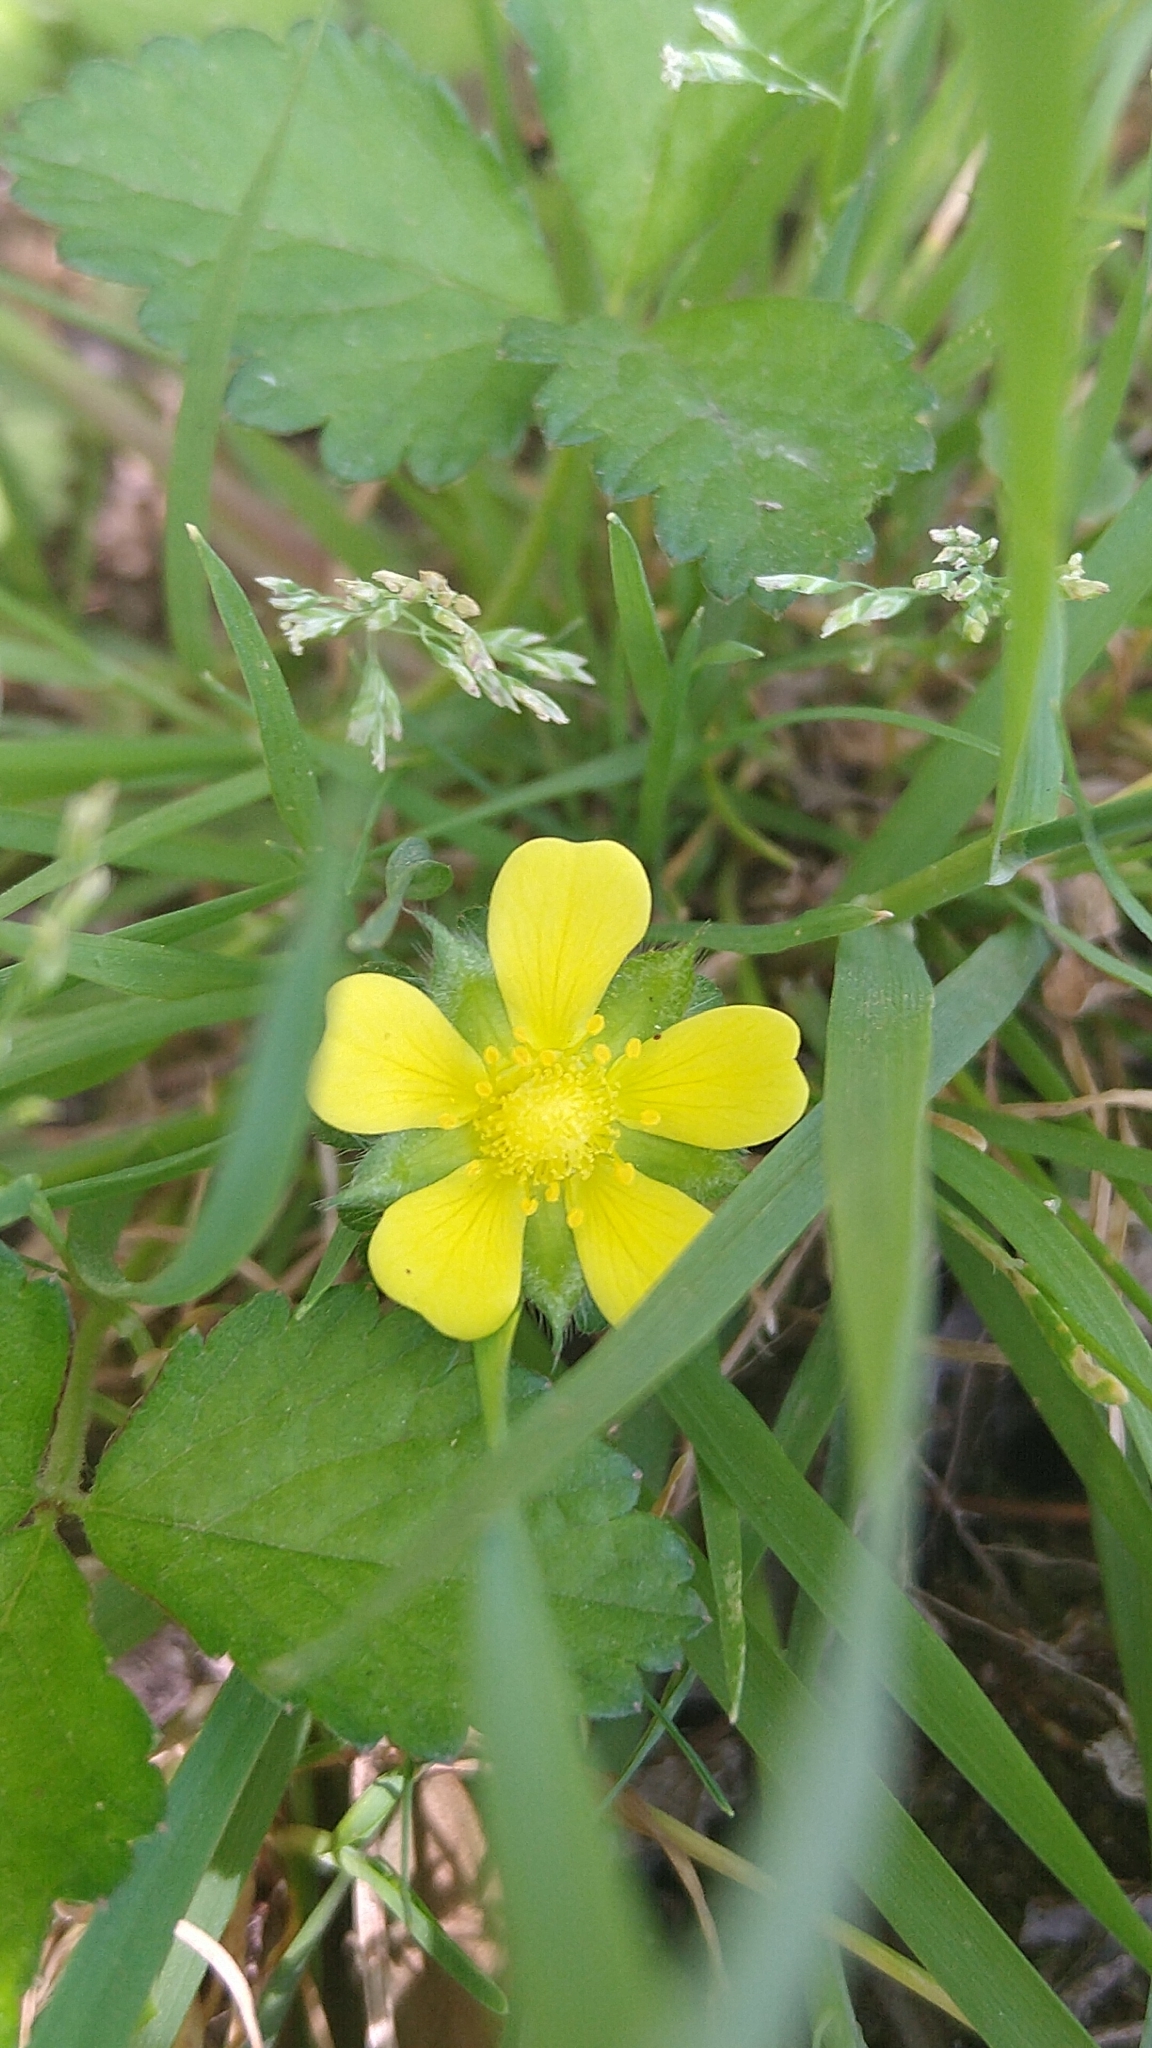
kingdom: Plantae
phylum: Tracheophyta
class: Magnoliopsida
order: Rosales
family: Rosaceae
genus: Potentilla
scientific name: Potentilla indica
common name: Yellow-flowered strawberry
